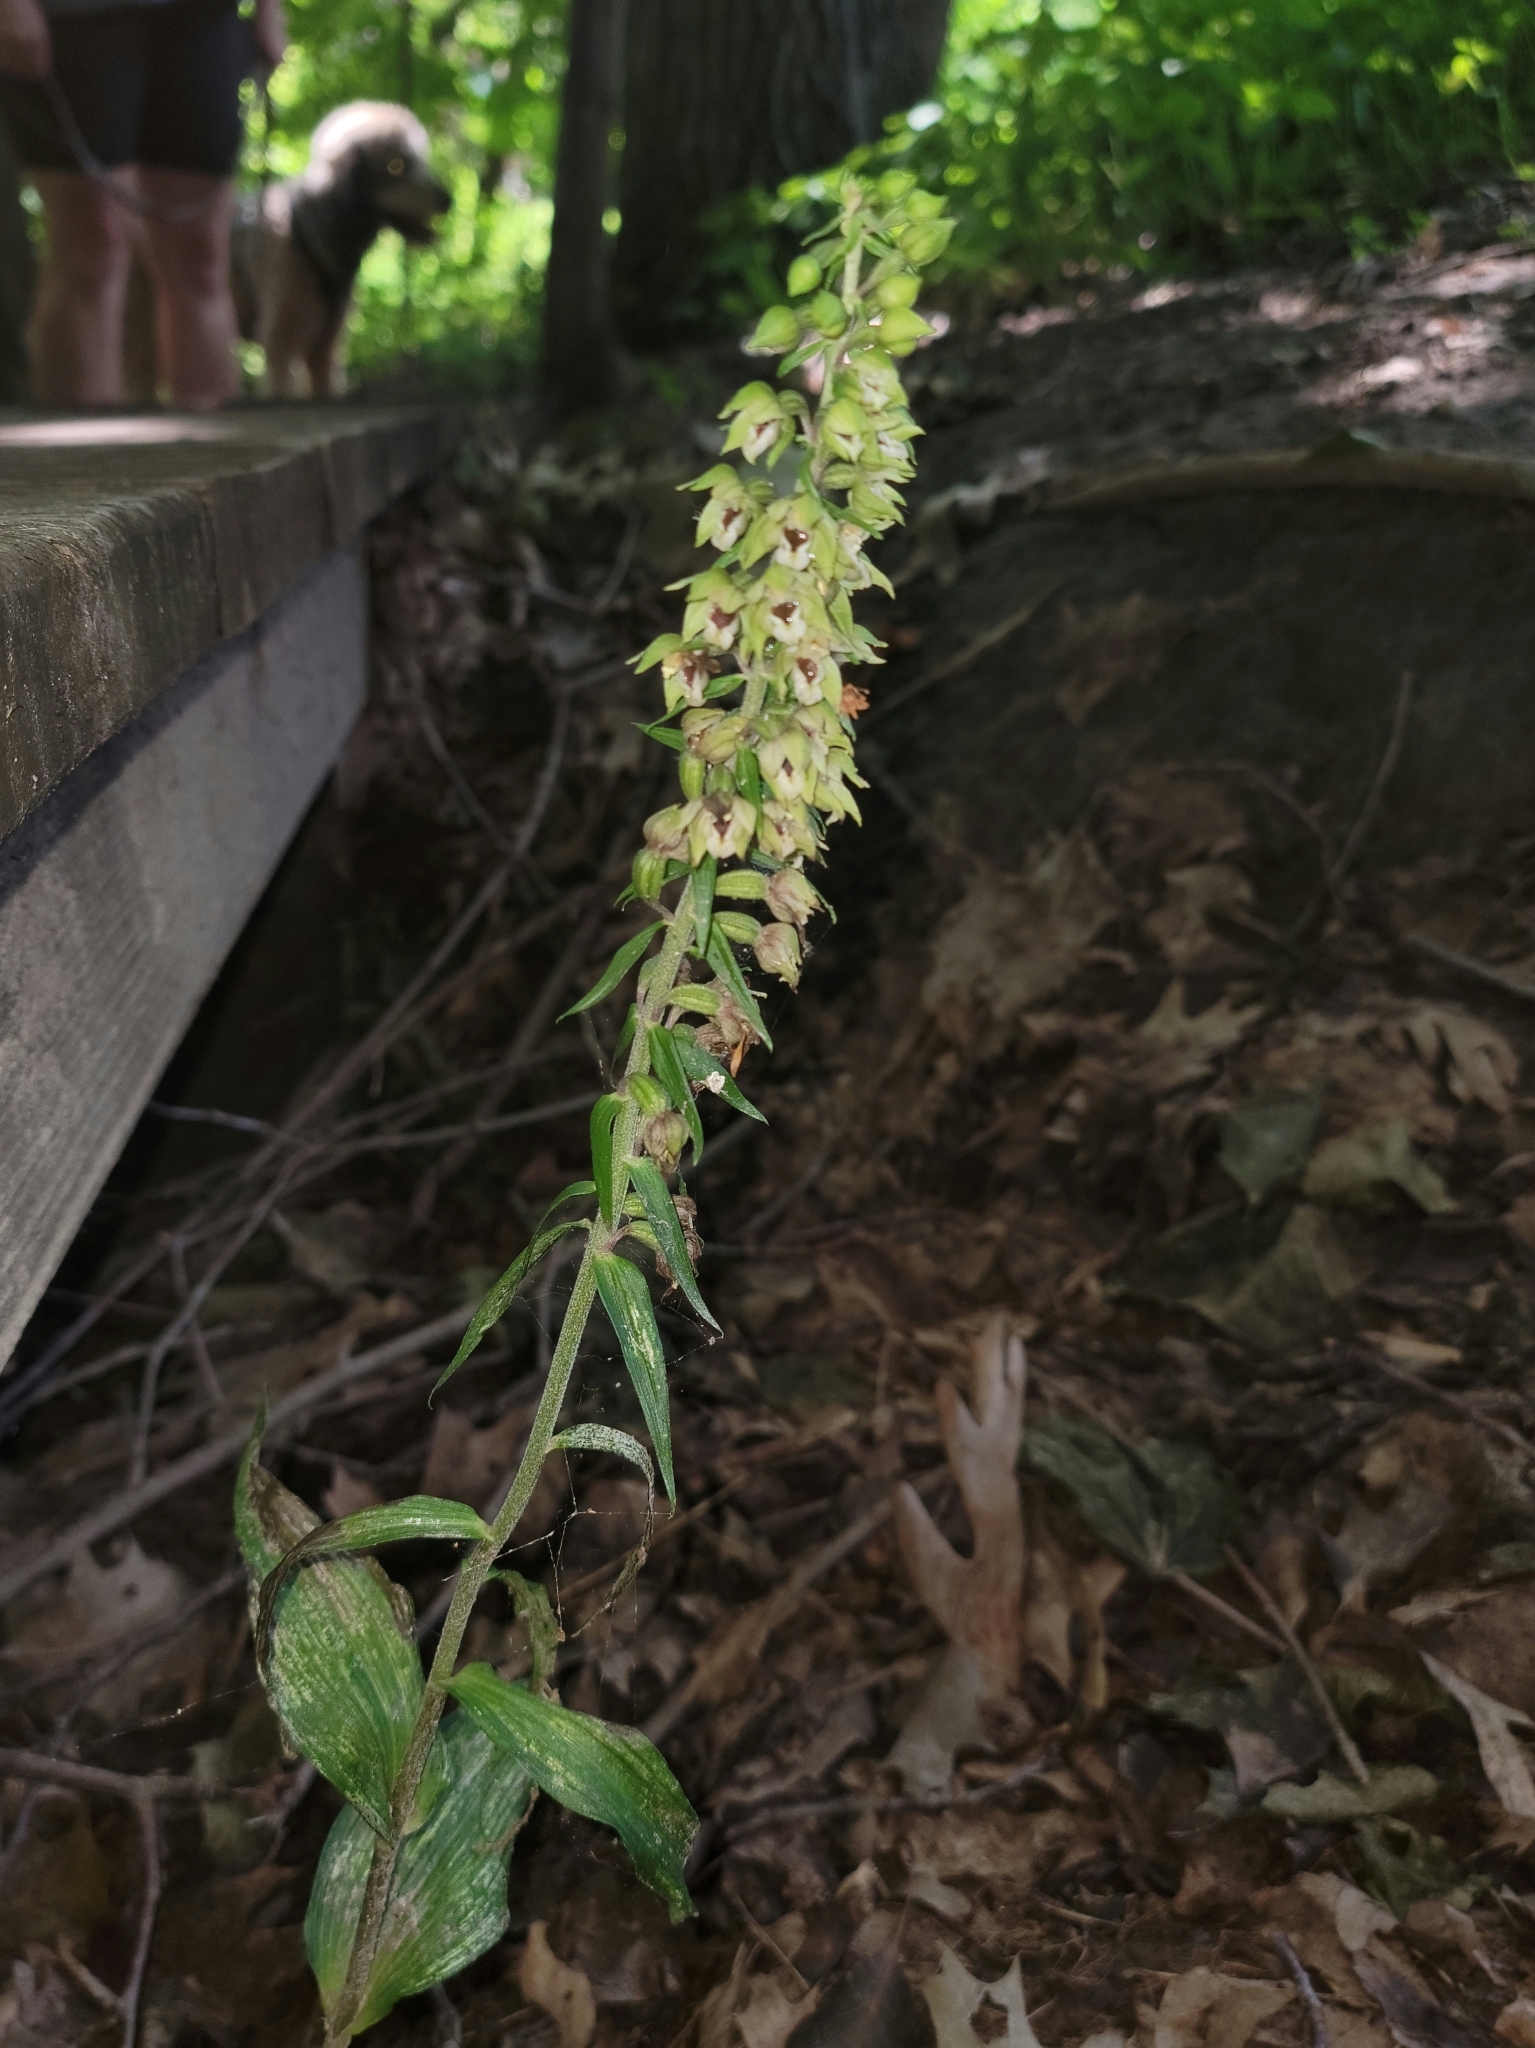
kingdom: Plantae
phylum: Tracheophyta
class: Liliopsida
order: Asparagales
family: Orchidaceae
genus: Epipactis
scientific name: Epipactis helleborine
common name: Broad-leaved helleborine
